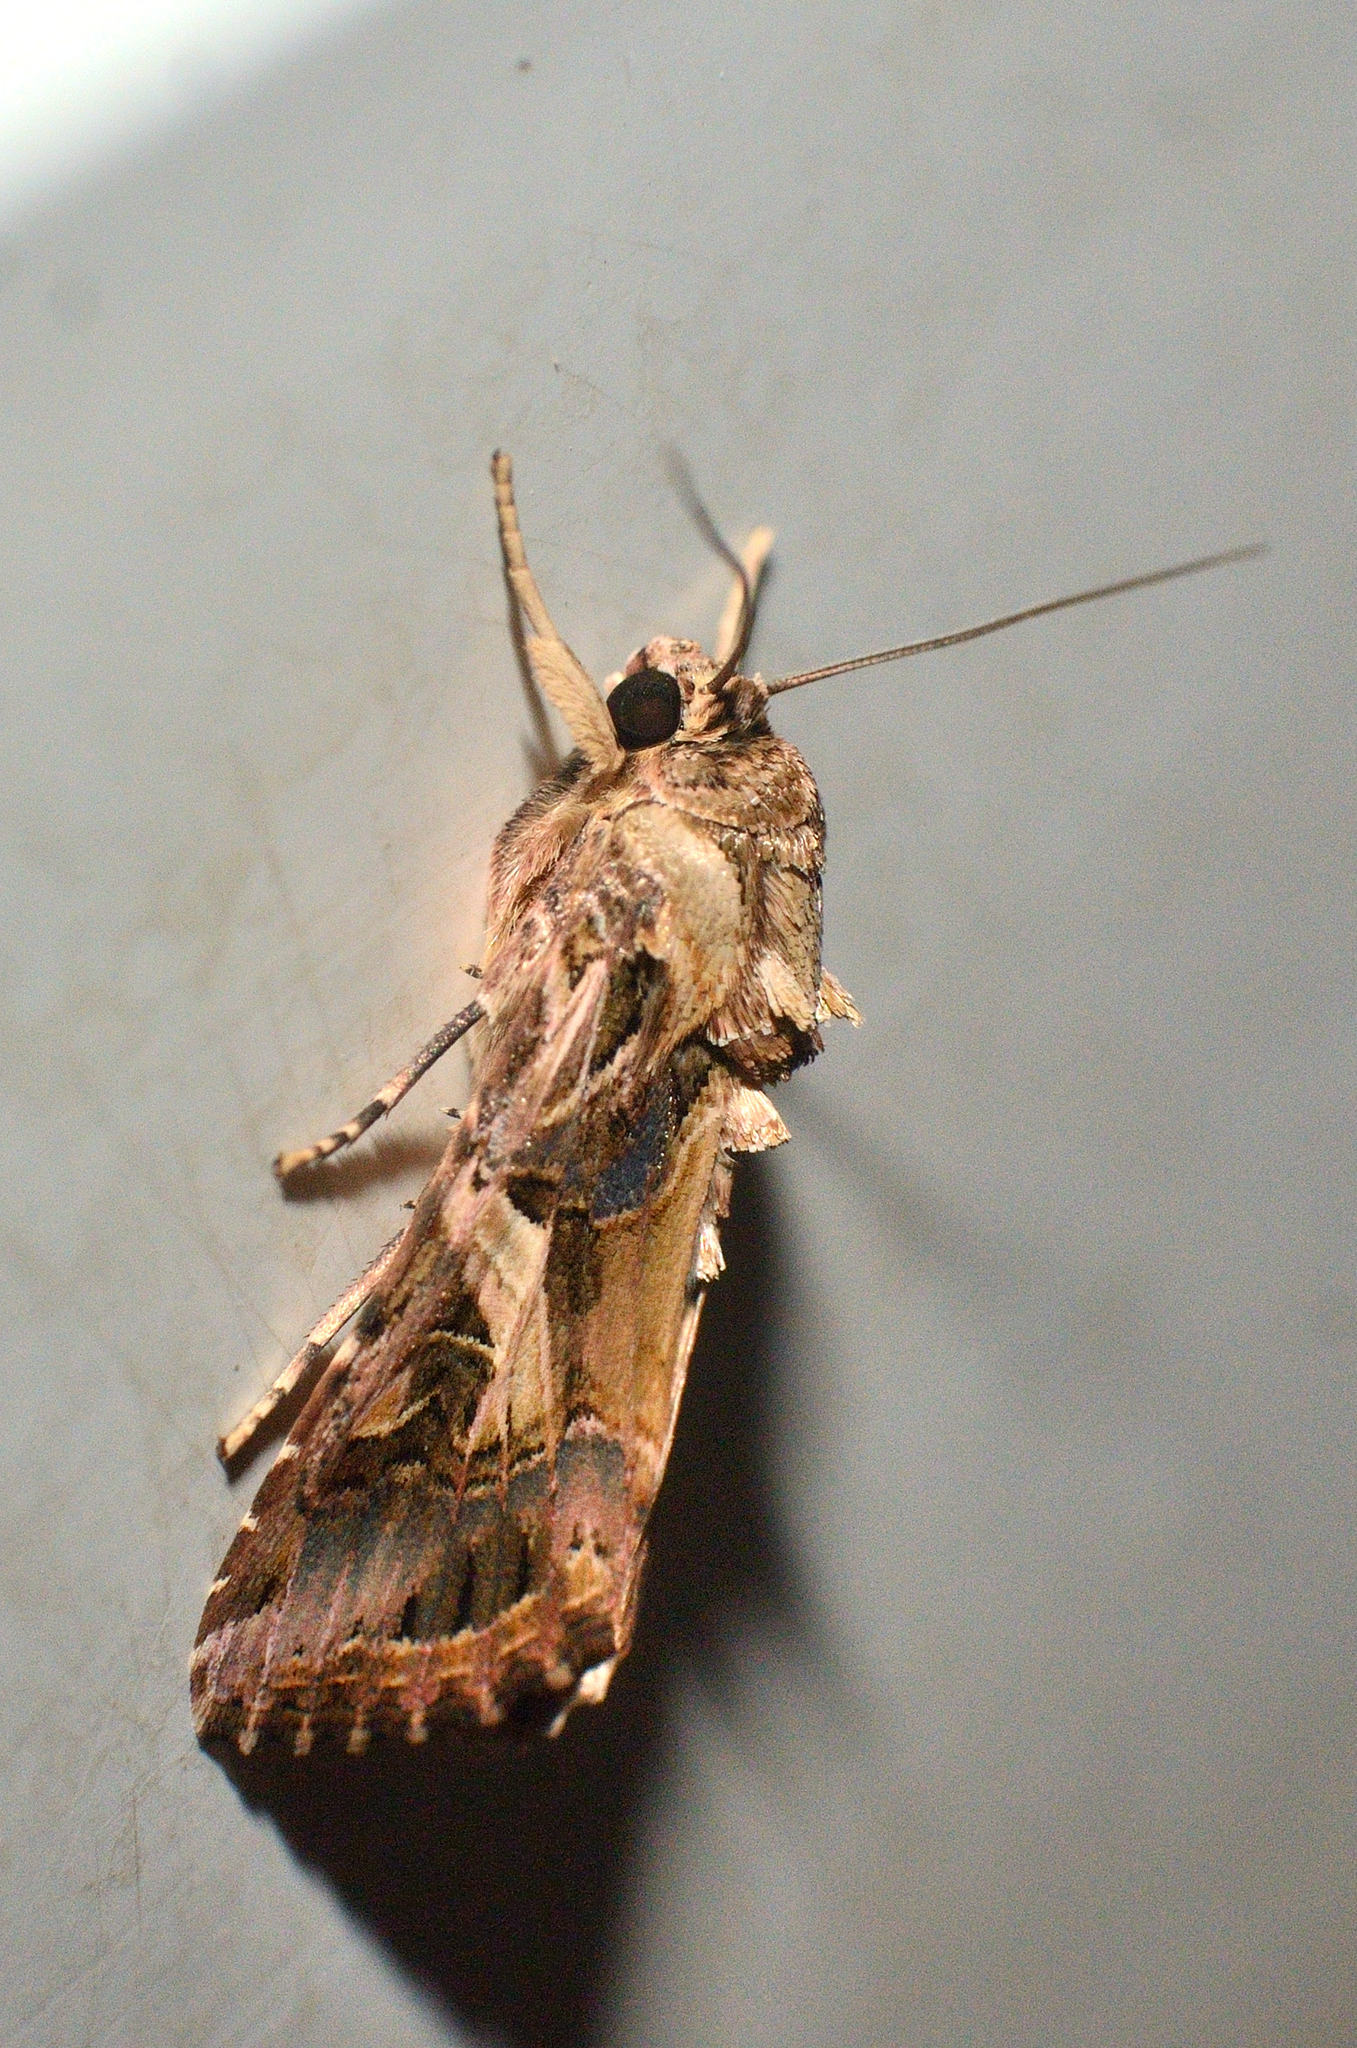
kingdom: Animalia
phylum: Arthropoda
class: Insecta
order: Lepidoptera
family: Noctuidae
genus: Spodoptera
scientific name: Spodoptera litura
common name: Asian cotton leafworm
